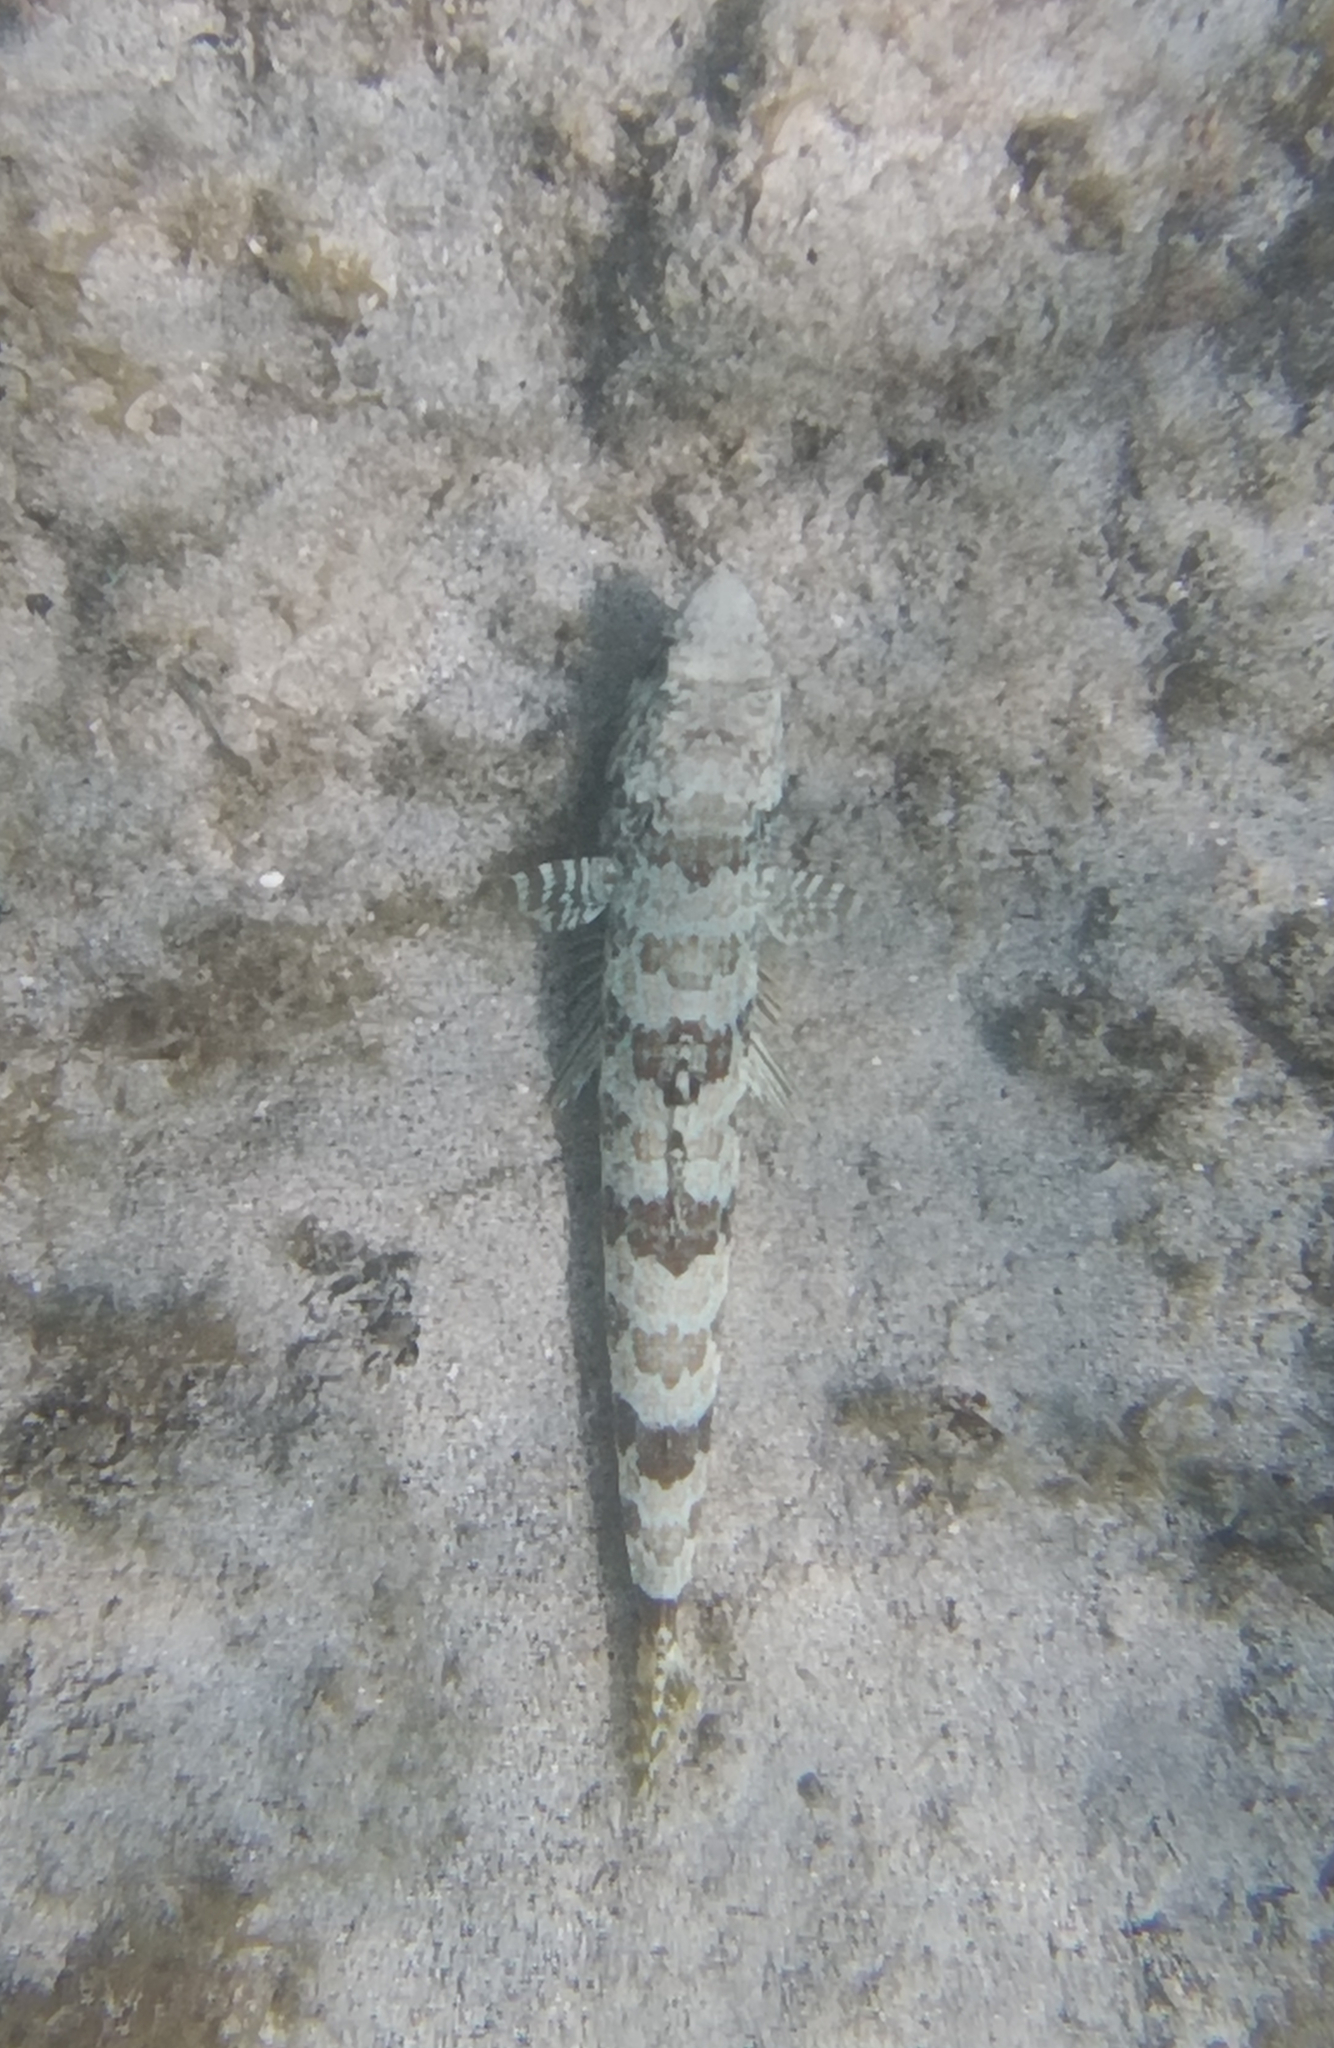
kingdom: Animalia
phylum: Chordata
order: Aulopiformes
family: Synodontidae
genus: Synodus
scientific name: Synodus intermedius
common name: Sand diver
